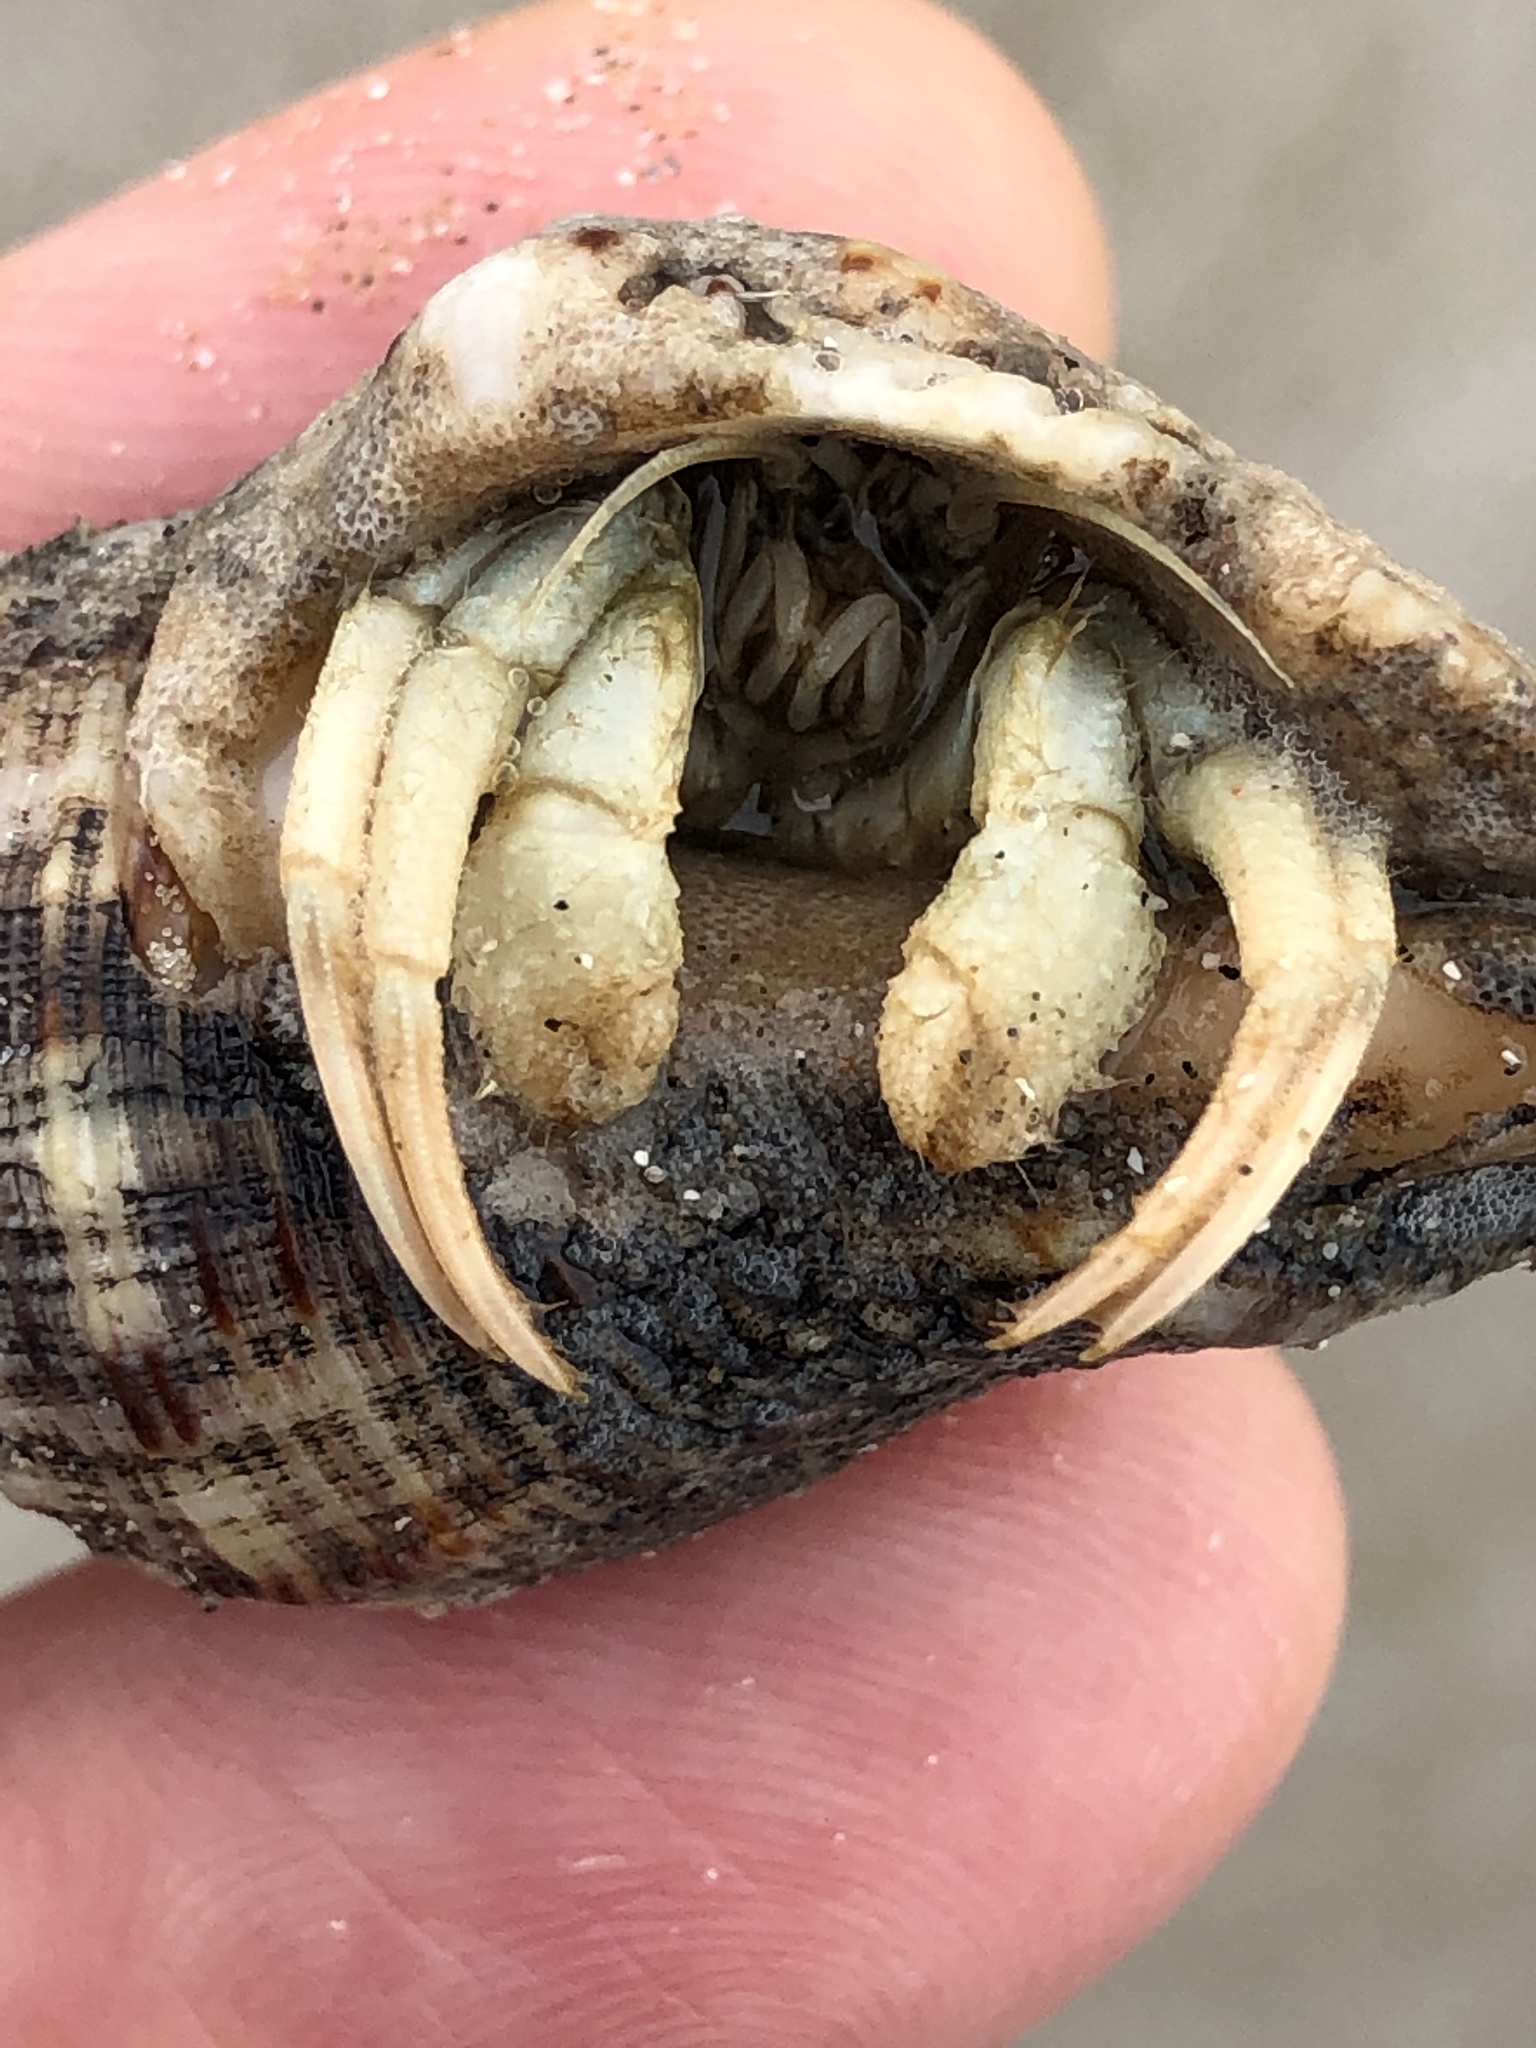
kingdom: Animalia
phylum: Arthropoda
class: Malacostraca
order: Decapoda
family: Diogenidae
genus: Isocheles
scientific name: Isocheles wurdemanni
